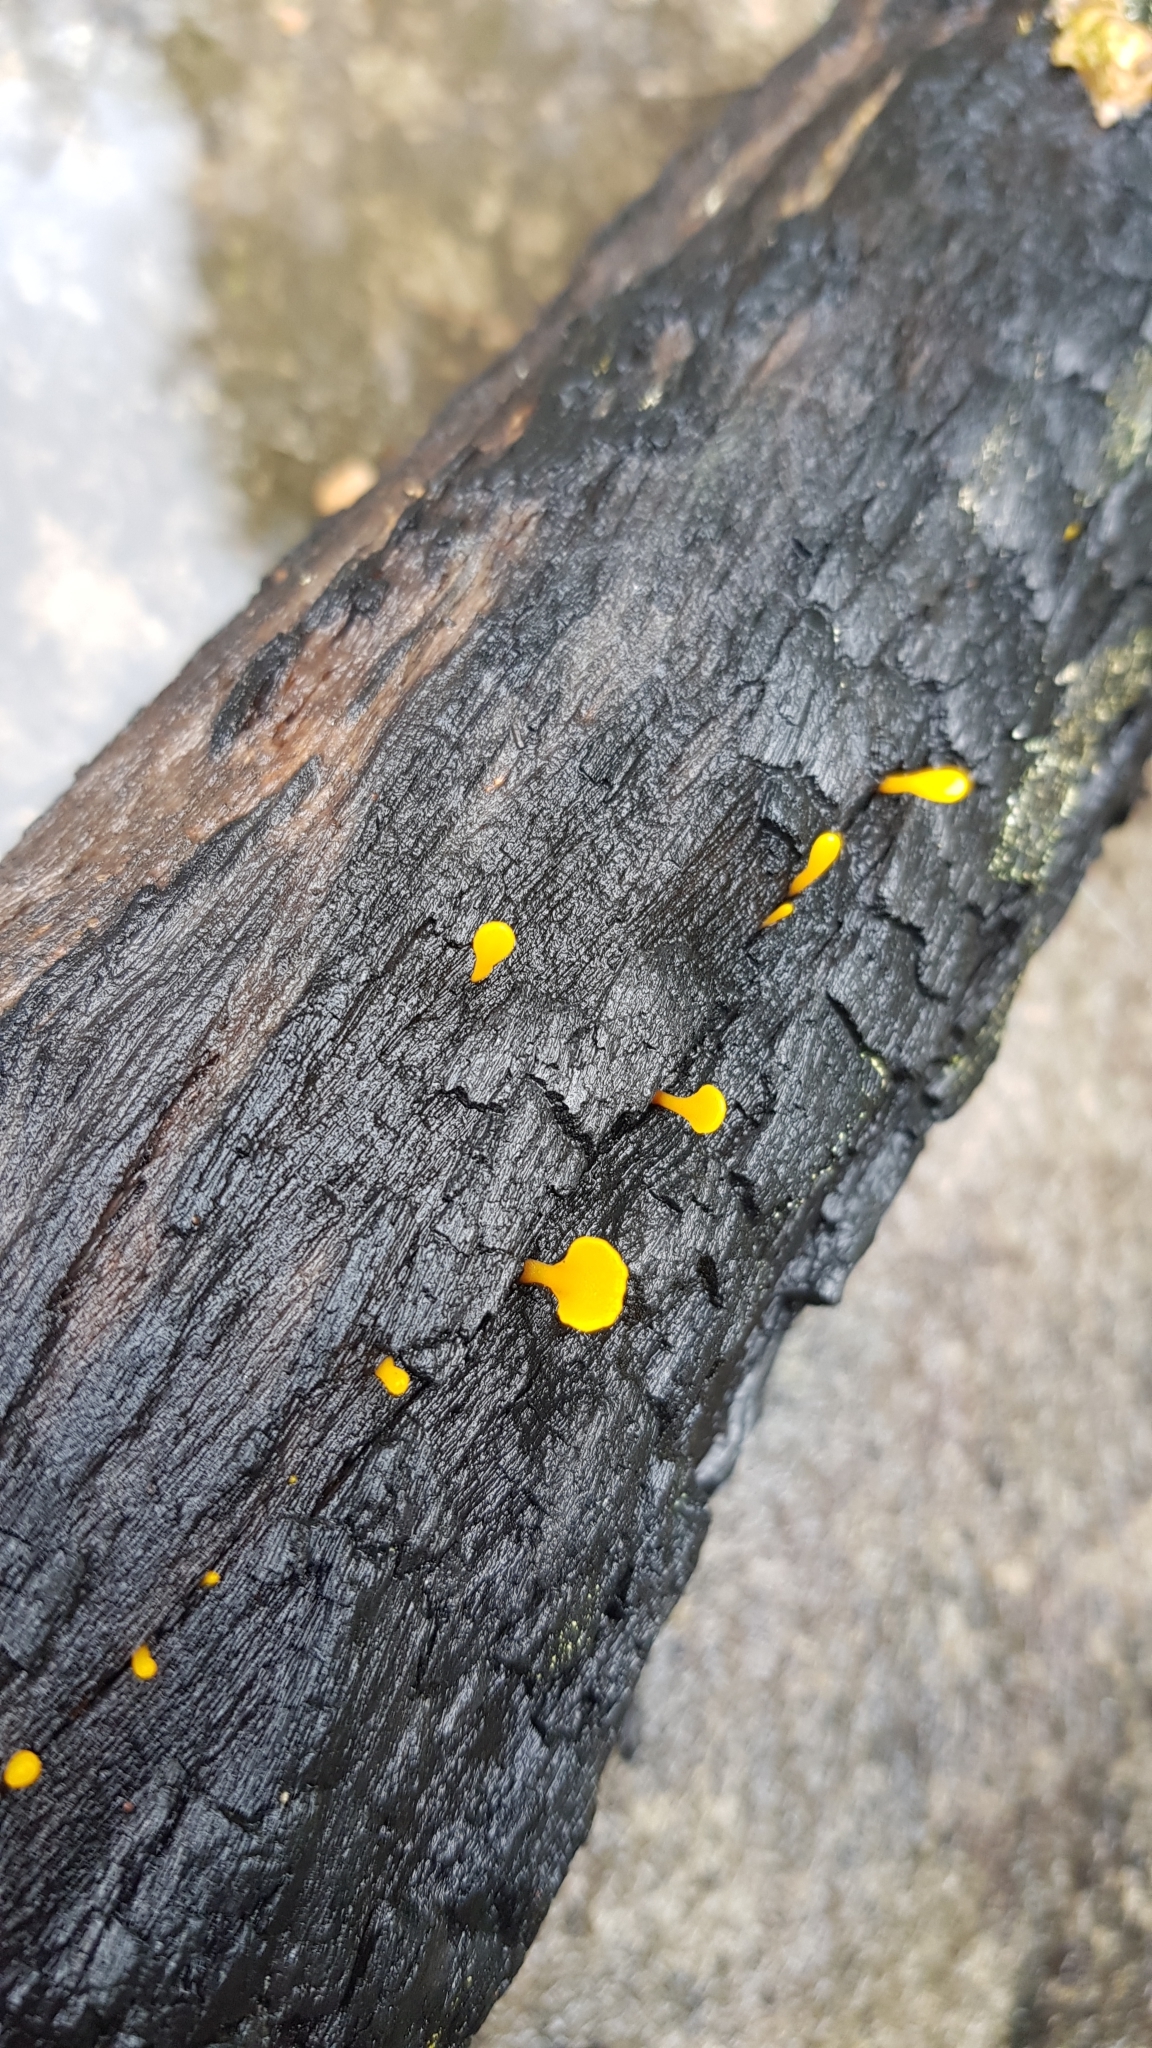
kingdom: Fungi
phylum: Basidiomycota
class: Dacrymycetes
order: Dacrymycetales
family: Dacrymycetaceae
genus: Dacrymyces
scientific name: Dacrymyces spathularius
